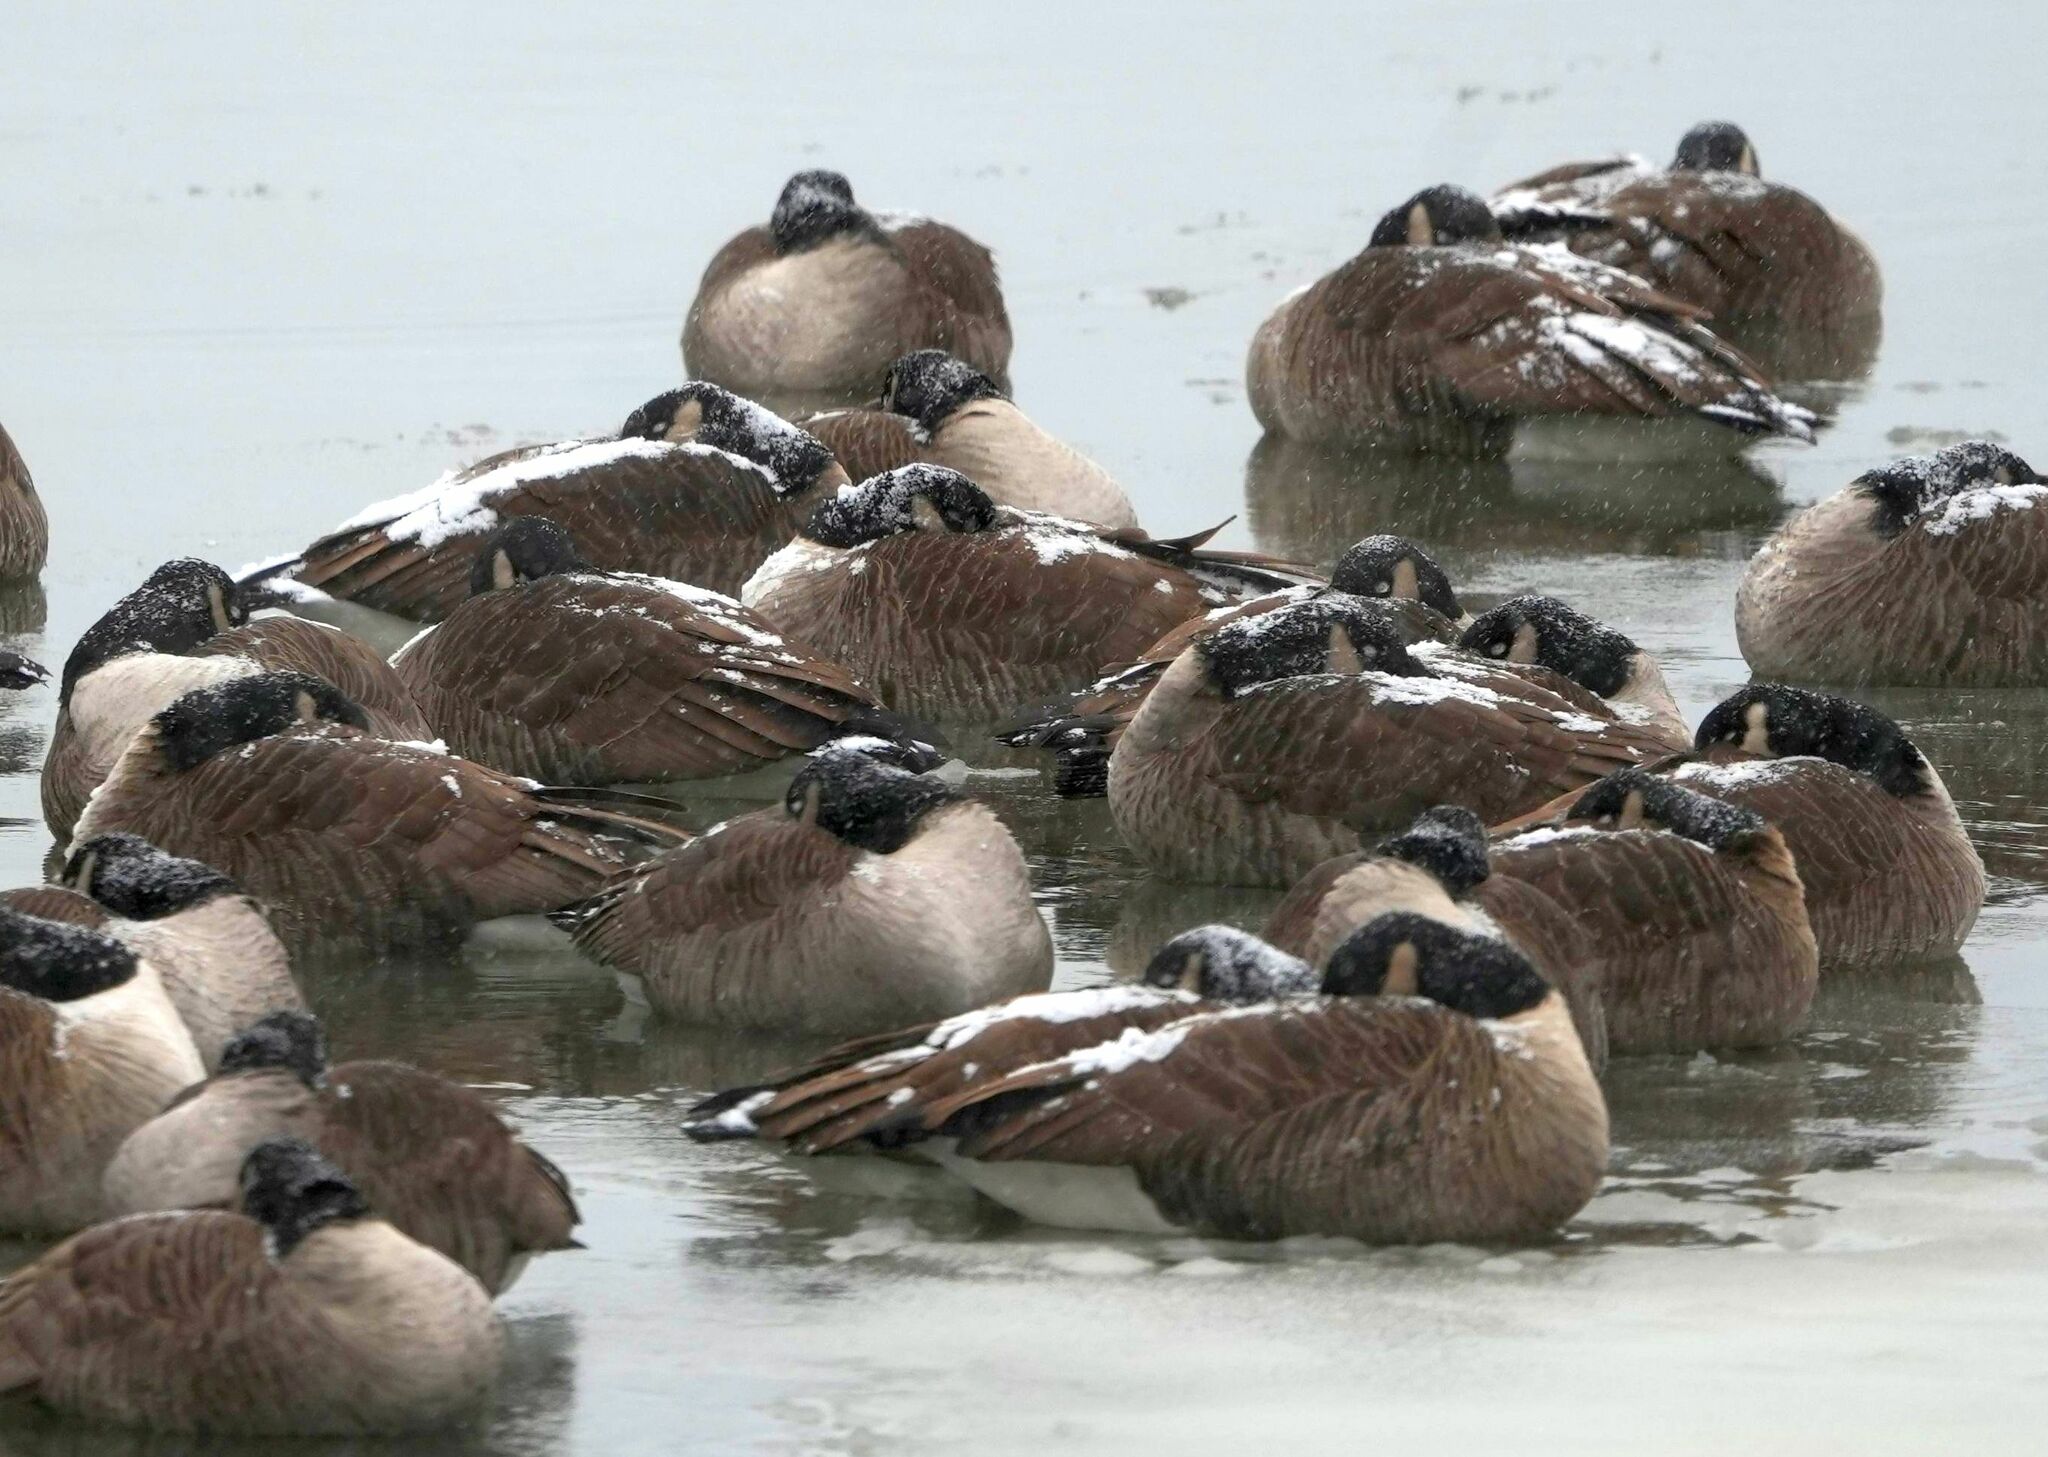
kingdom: Animalia
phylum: Chordata
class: Aves
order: Anseriformes
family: Anatidae
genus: Branta
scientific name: Branta canadensis
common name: Canada goose
